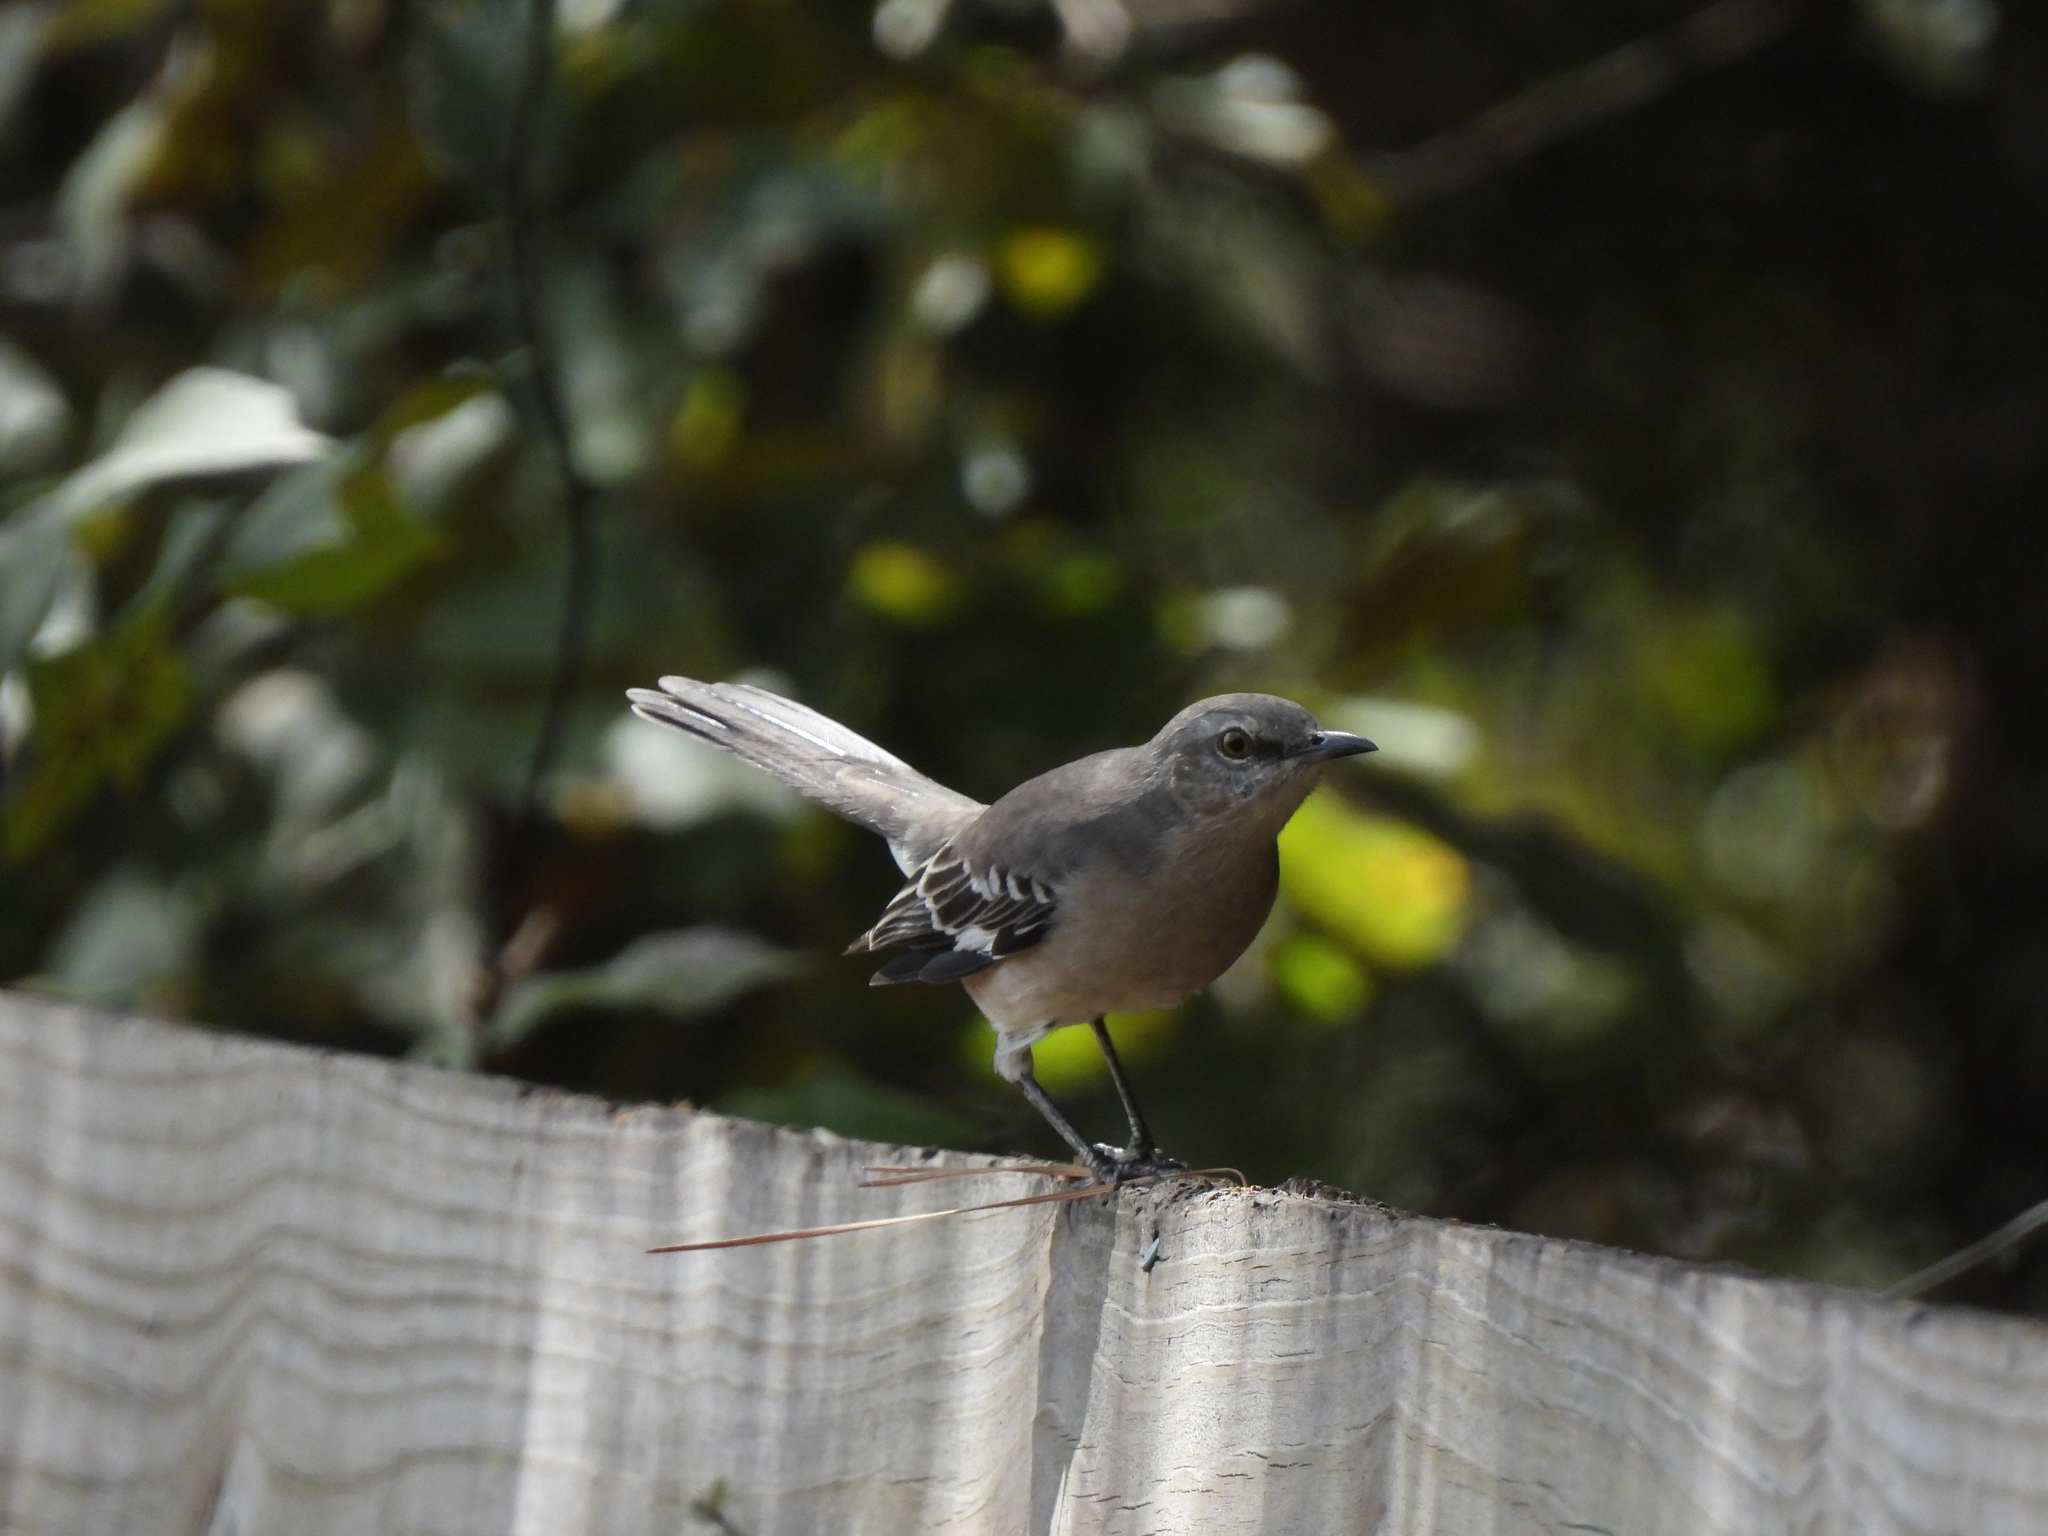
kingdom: Animalia
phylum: Chordata
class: Aves
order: Passeriformes
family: Mimidae
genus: Mimus
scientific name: Mimus polyglottos
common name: Northern mockingbird
